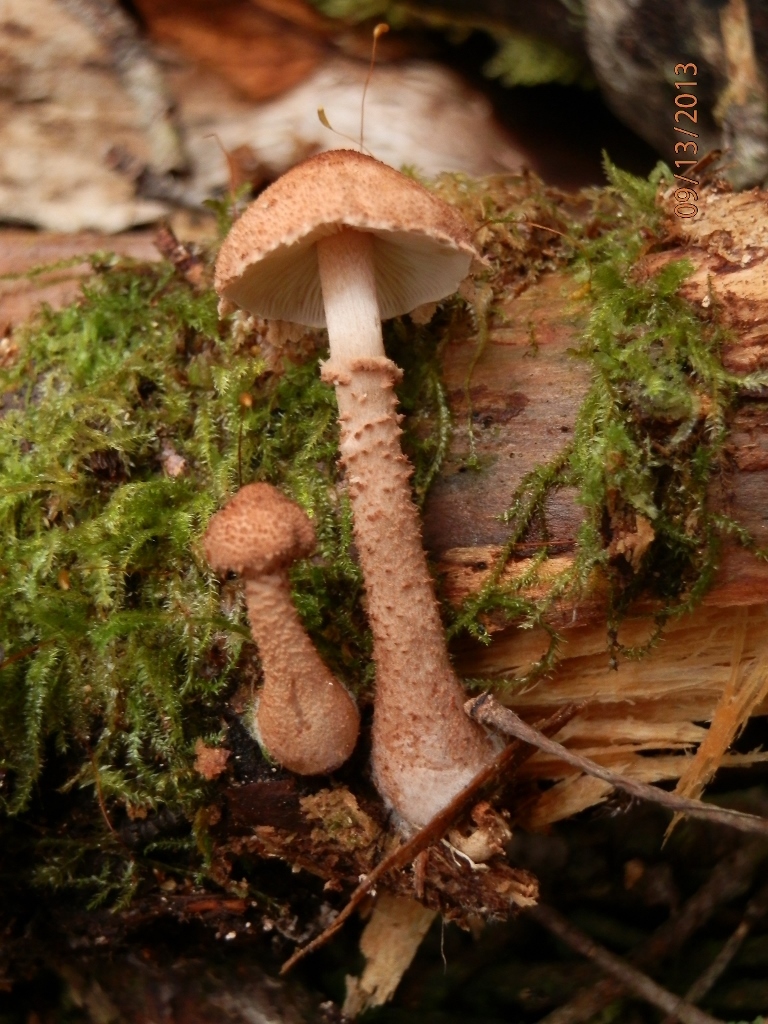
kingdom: Fungi
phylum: Basidiomycota
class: Agaricomycetes
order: Agaricales
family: Tricholomataceae
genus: Cystoderma
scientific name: Cystoderma fallax
